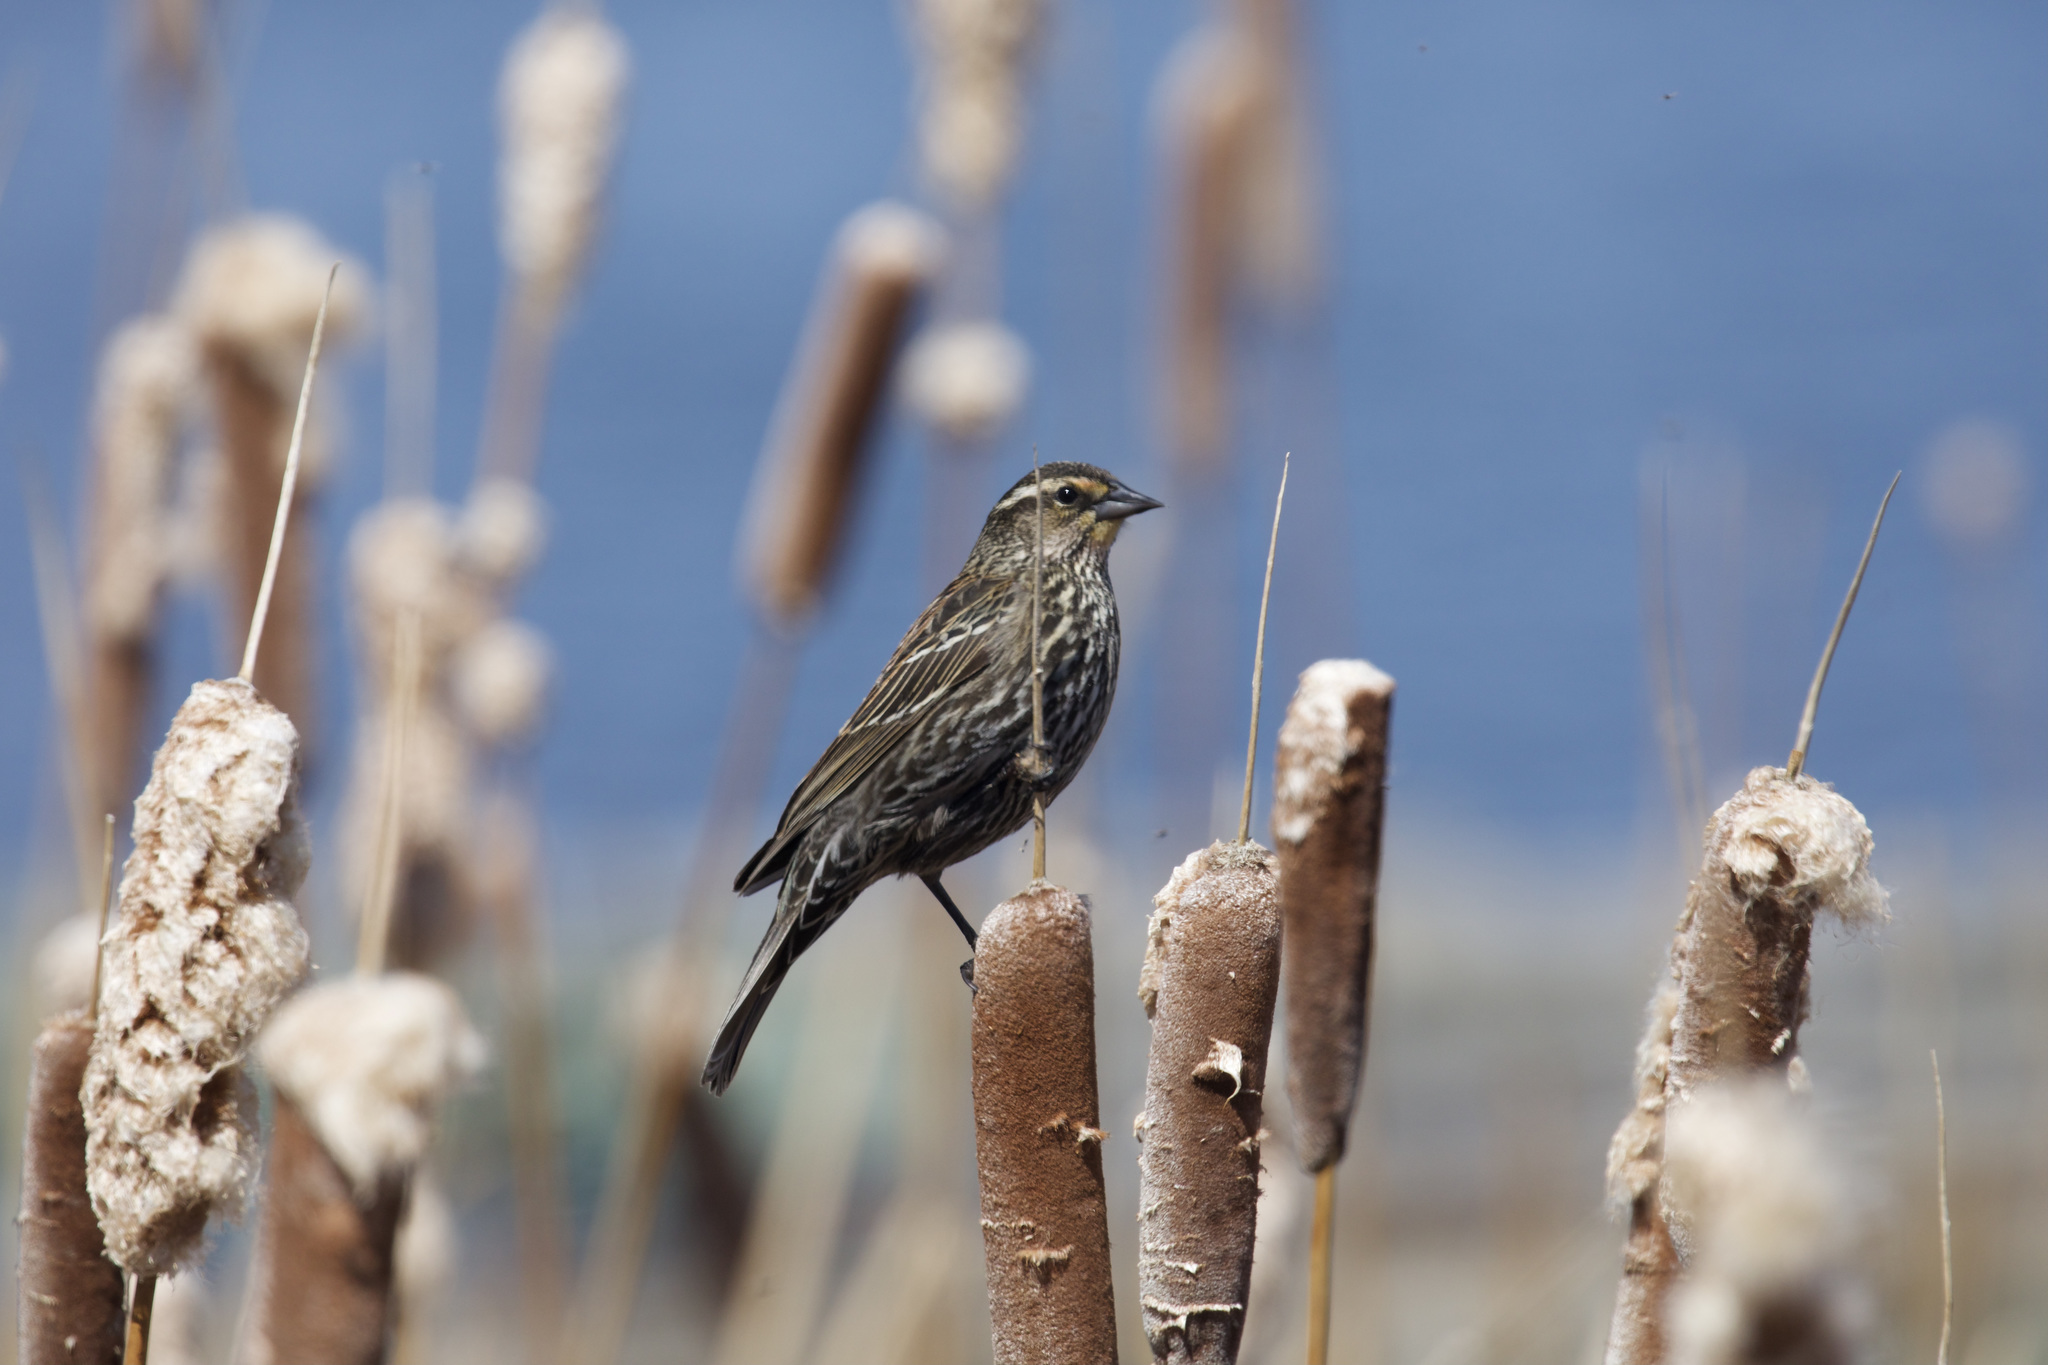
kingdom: Animalia
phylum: Chordata
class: Aves
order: Passeriformes
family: Icteridae
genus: Agelaius
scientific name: Agelaius phoeniceus
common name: Red-winged blackbird
